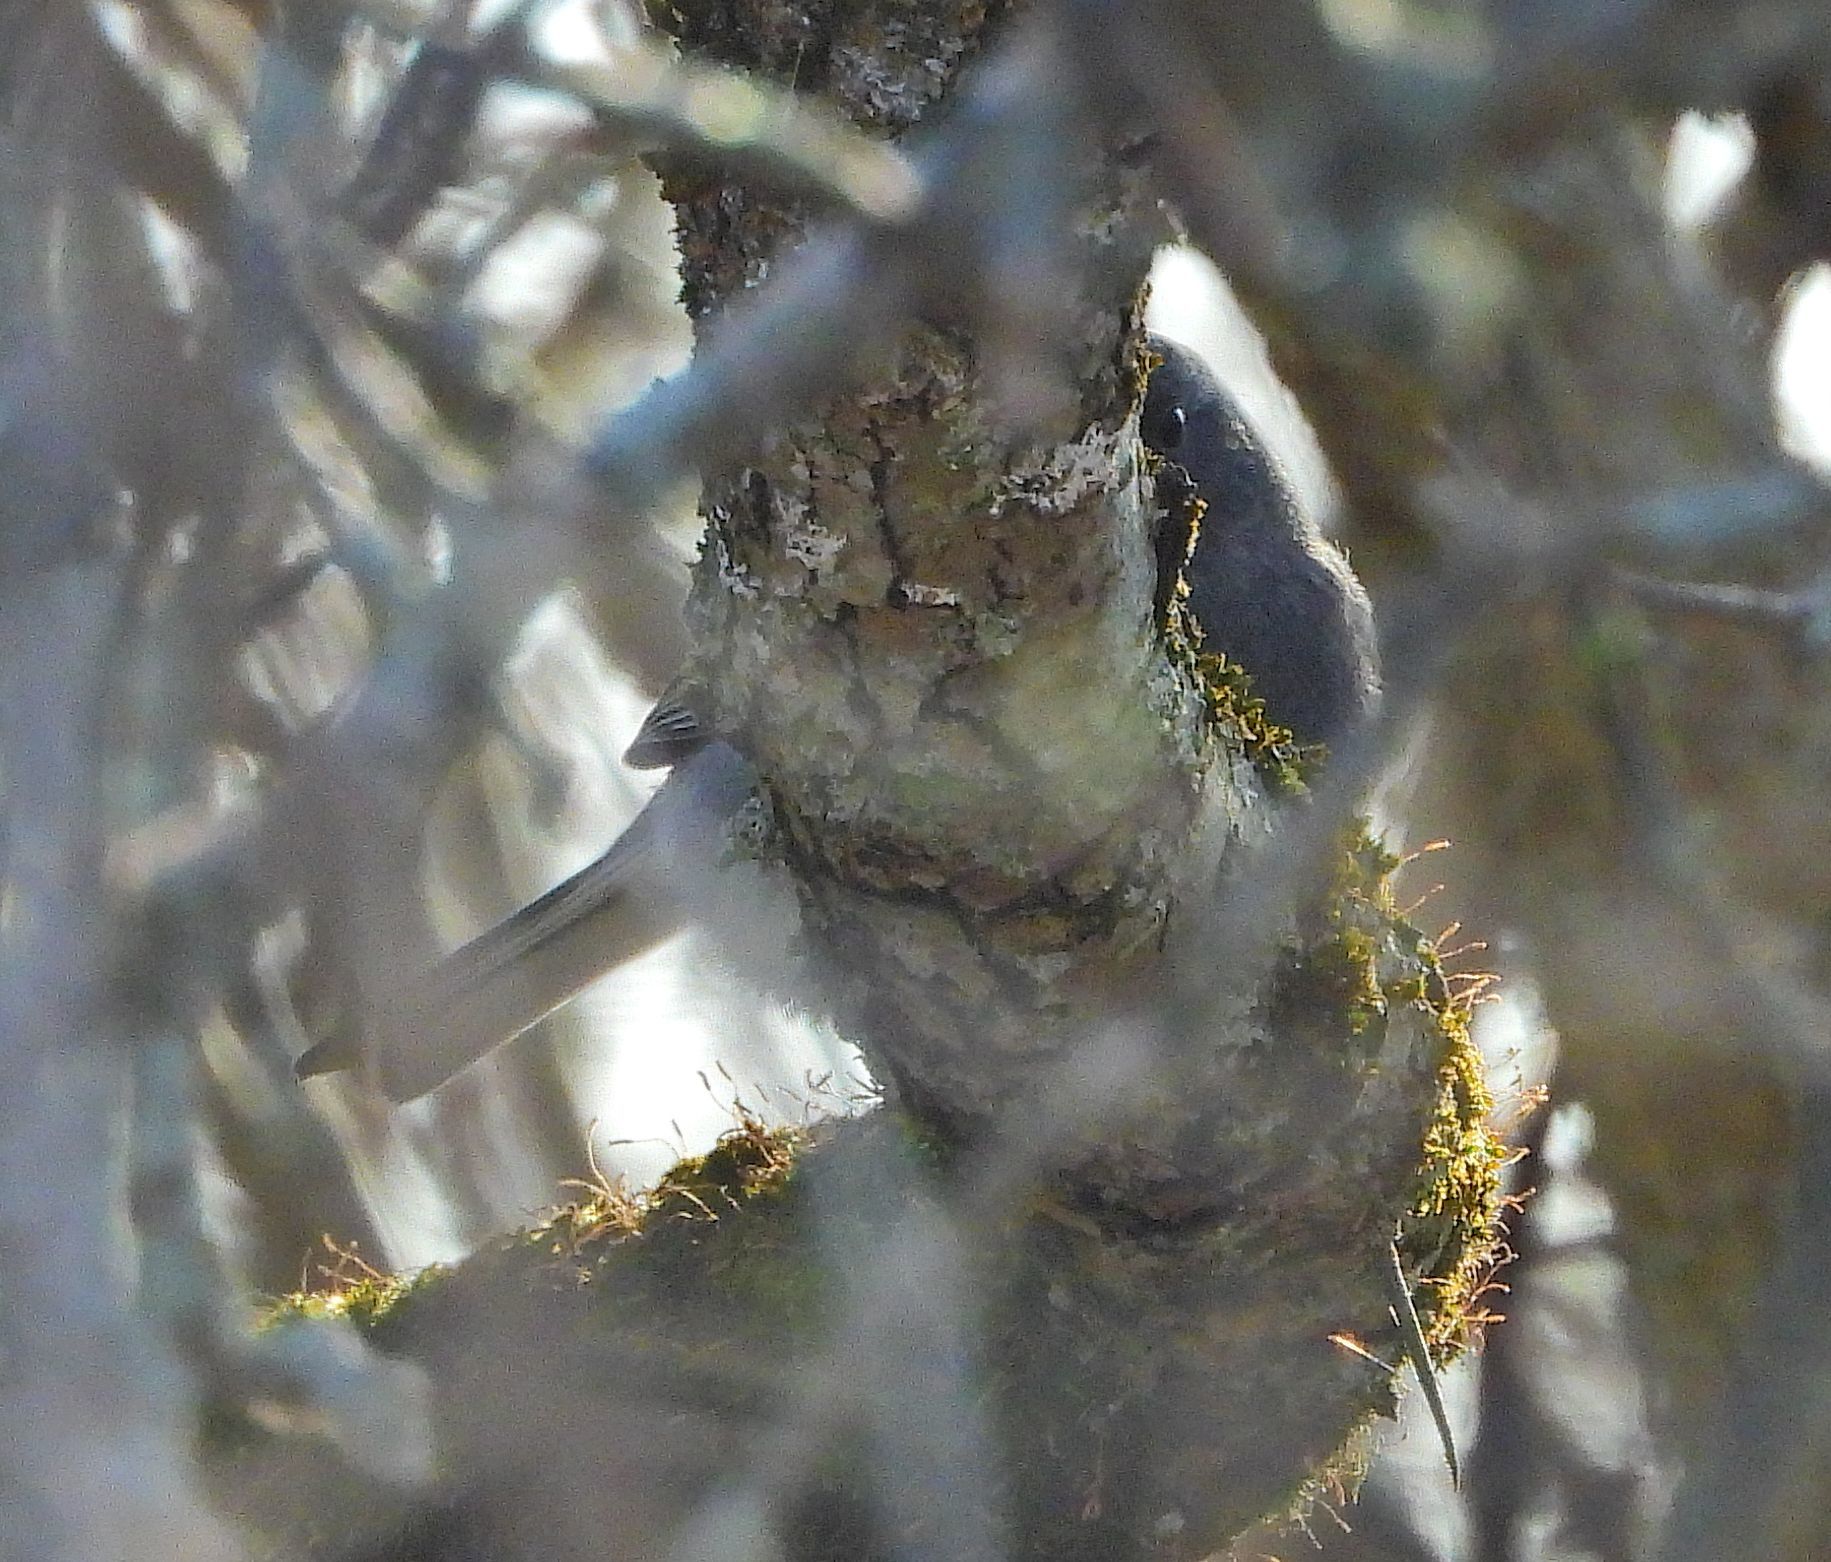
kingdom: Animalia
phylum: Chordata
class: Aves
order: Passeriformes
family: Passerellidae
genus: Junco
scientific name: Junco hyemalis
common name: Dark-eyed junco
